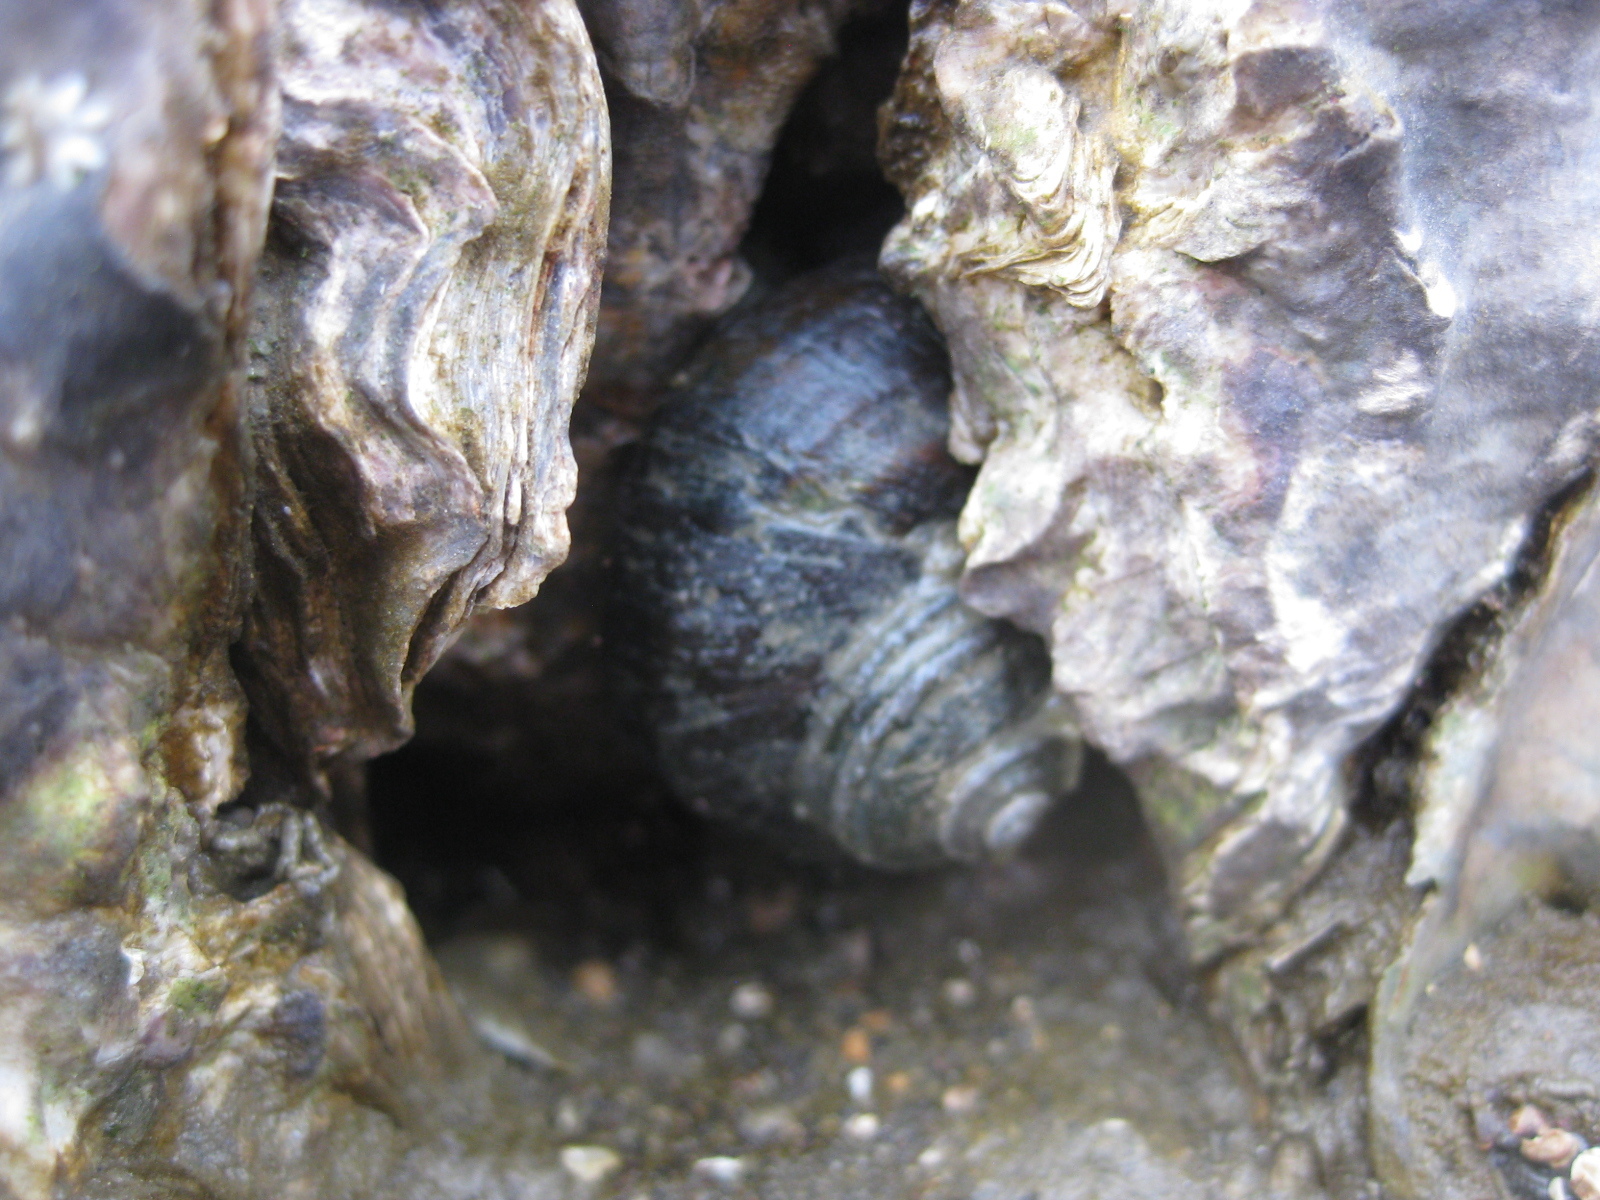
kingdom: Animalia
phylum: Mollusca
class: Gastropoda
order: Trochida
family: Turbinidae
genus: Lunella
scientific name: Lunella smaragda
